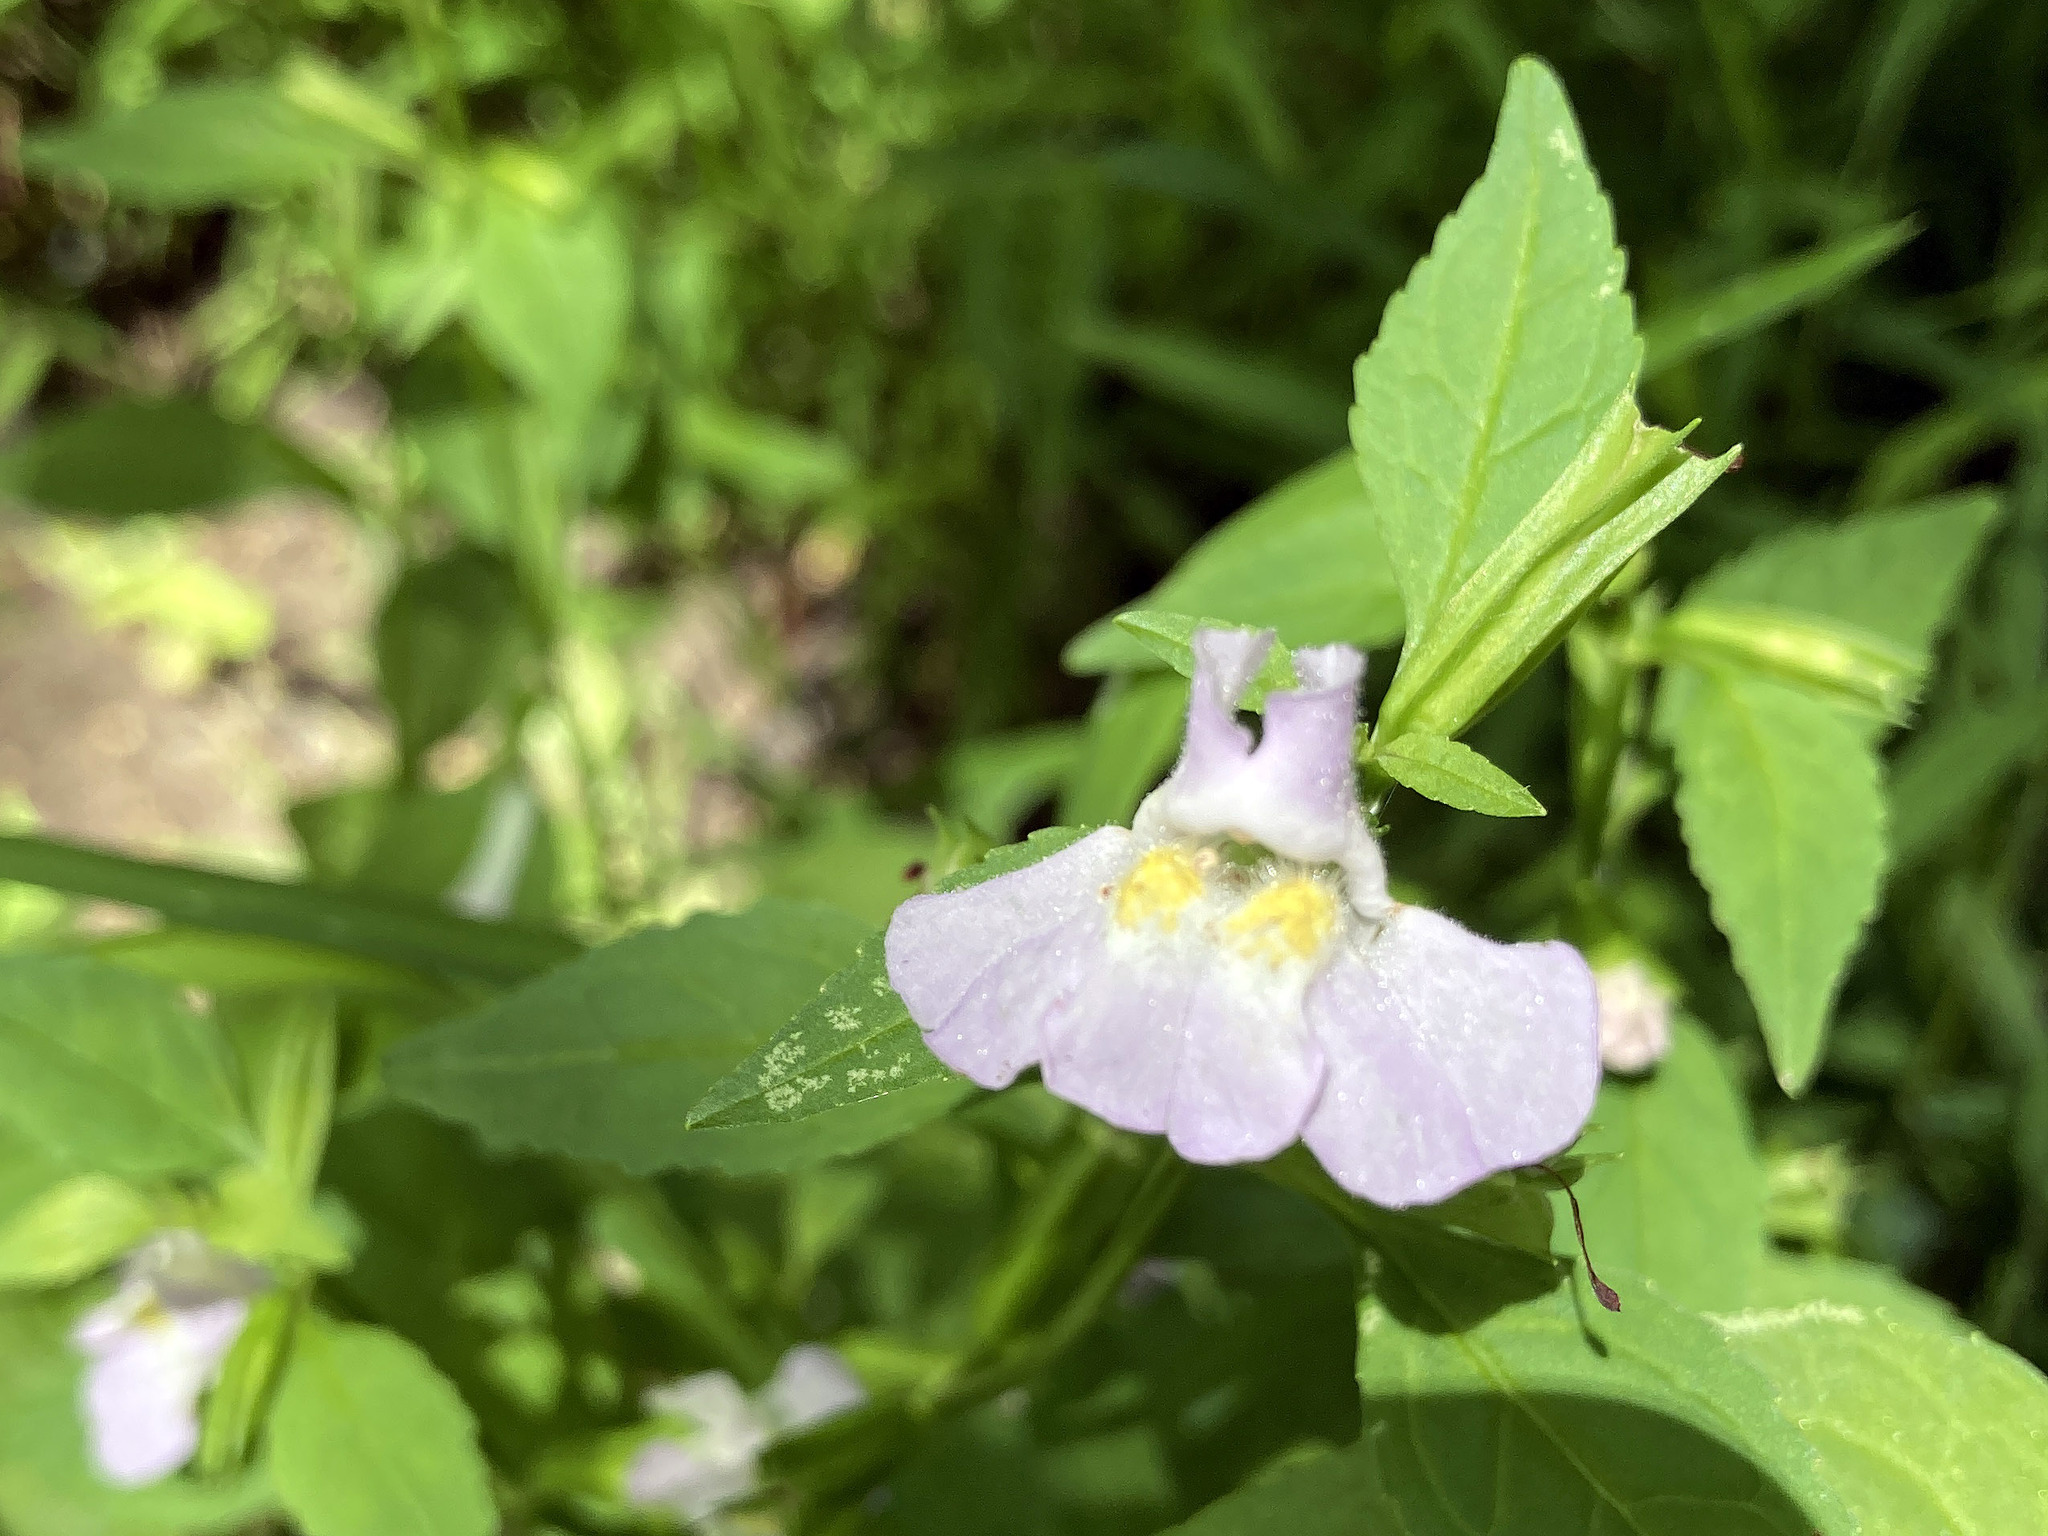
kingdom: Plantae
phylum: Tracheophyta
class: Magnoliopsida
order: Lamiales
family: Phrymaceae
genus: Mimulus
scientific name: Mimulus alatus
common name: Sharp-wing monkey-flower
